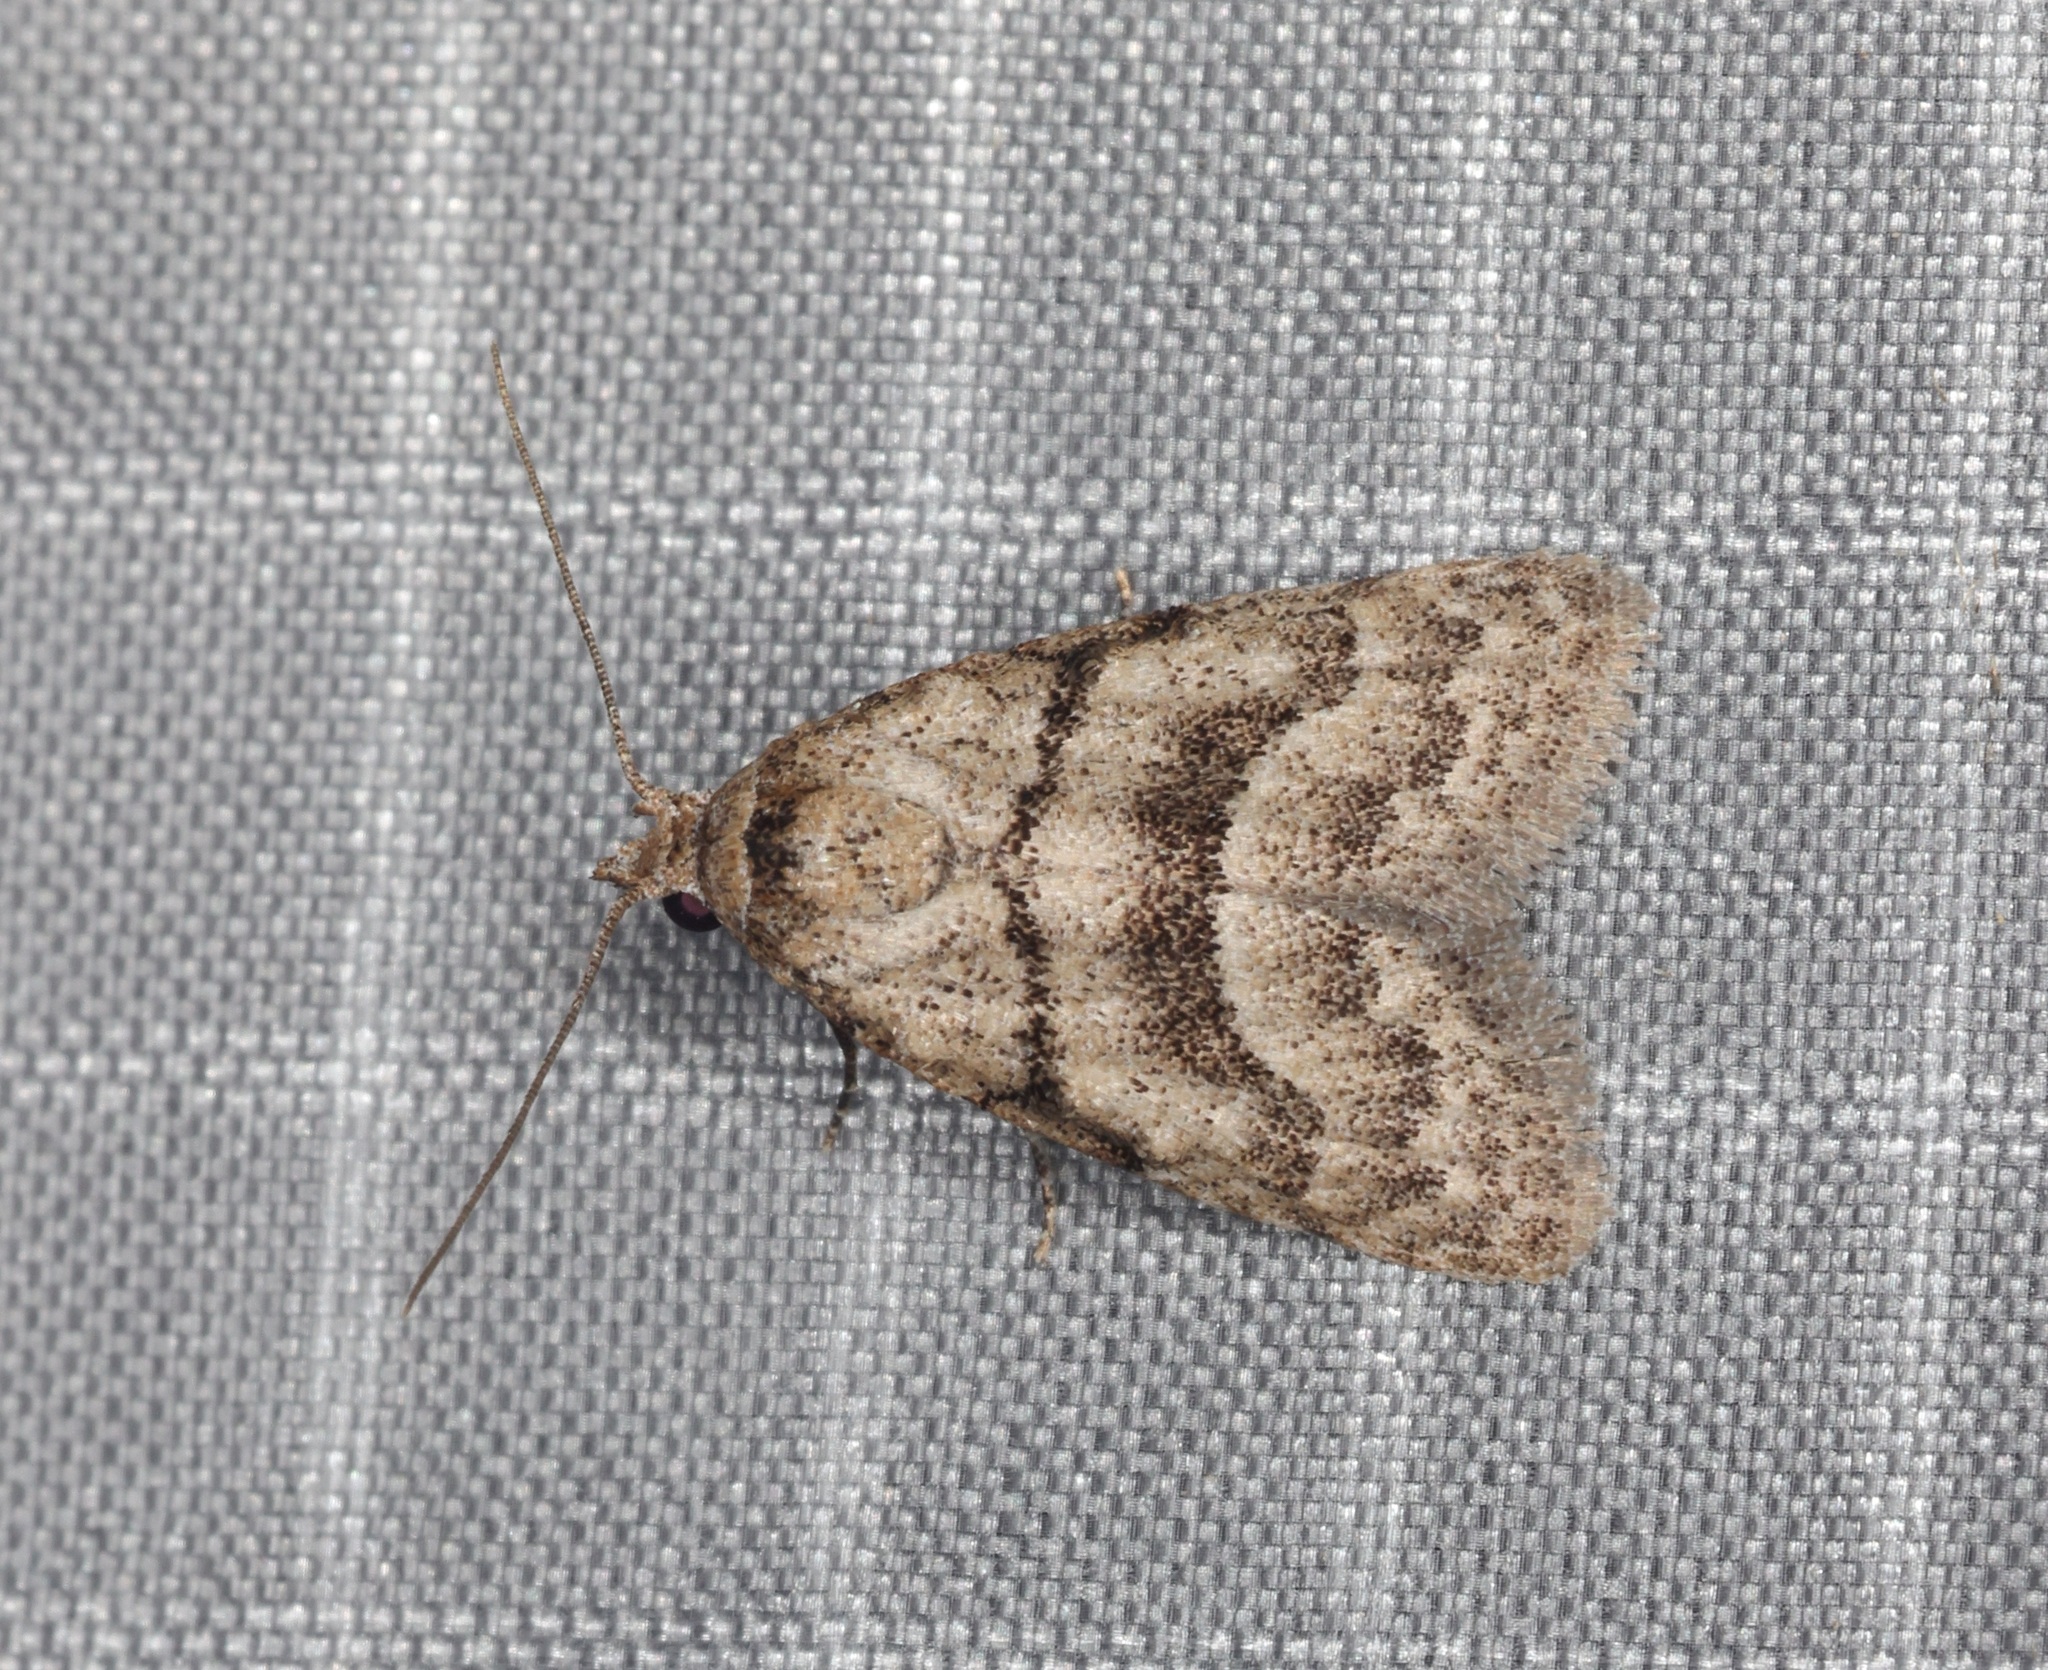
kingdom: Animalia
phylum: Arthropoda
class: Insecta
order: Lepidoptera
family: Nolidae
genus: Inouenola
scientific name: Inouenola pallescens
